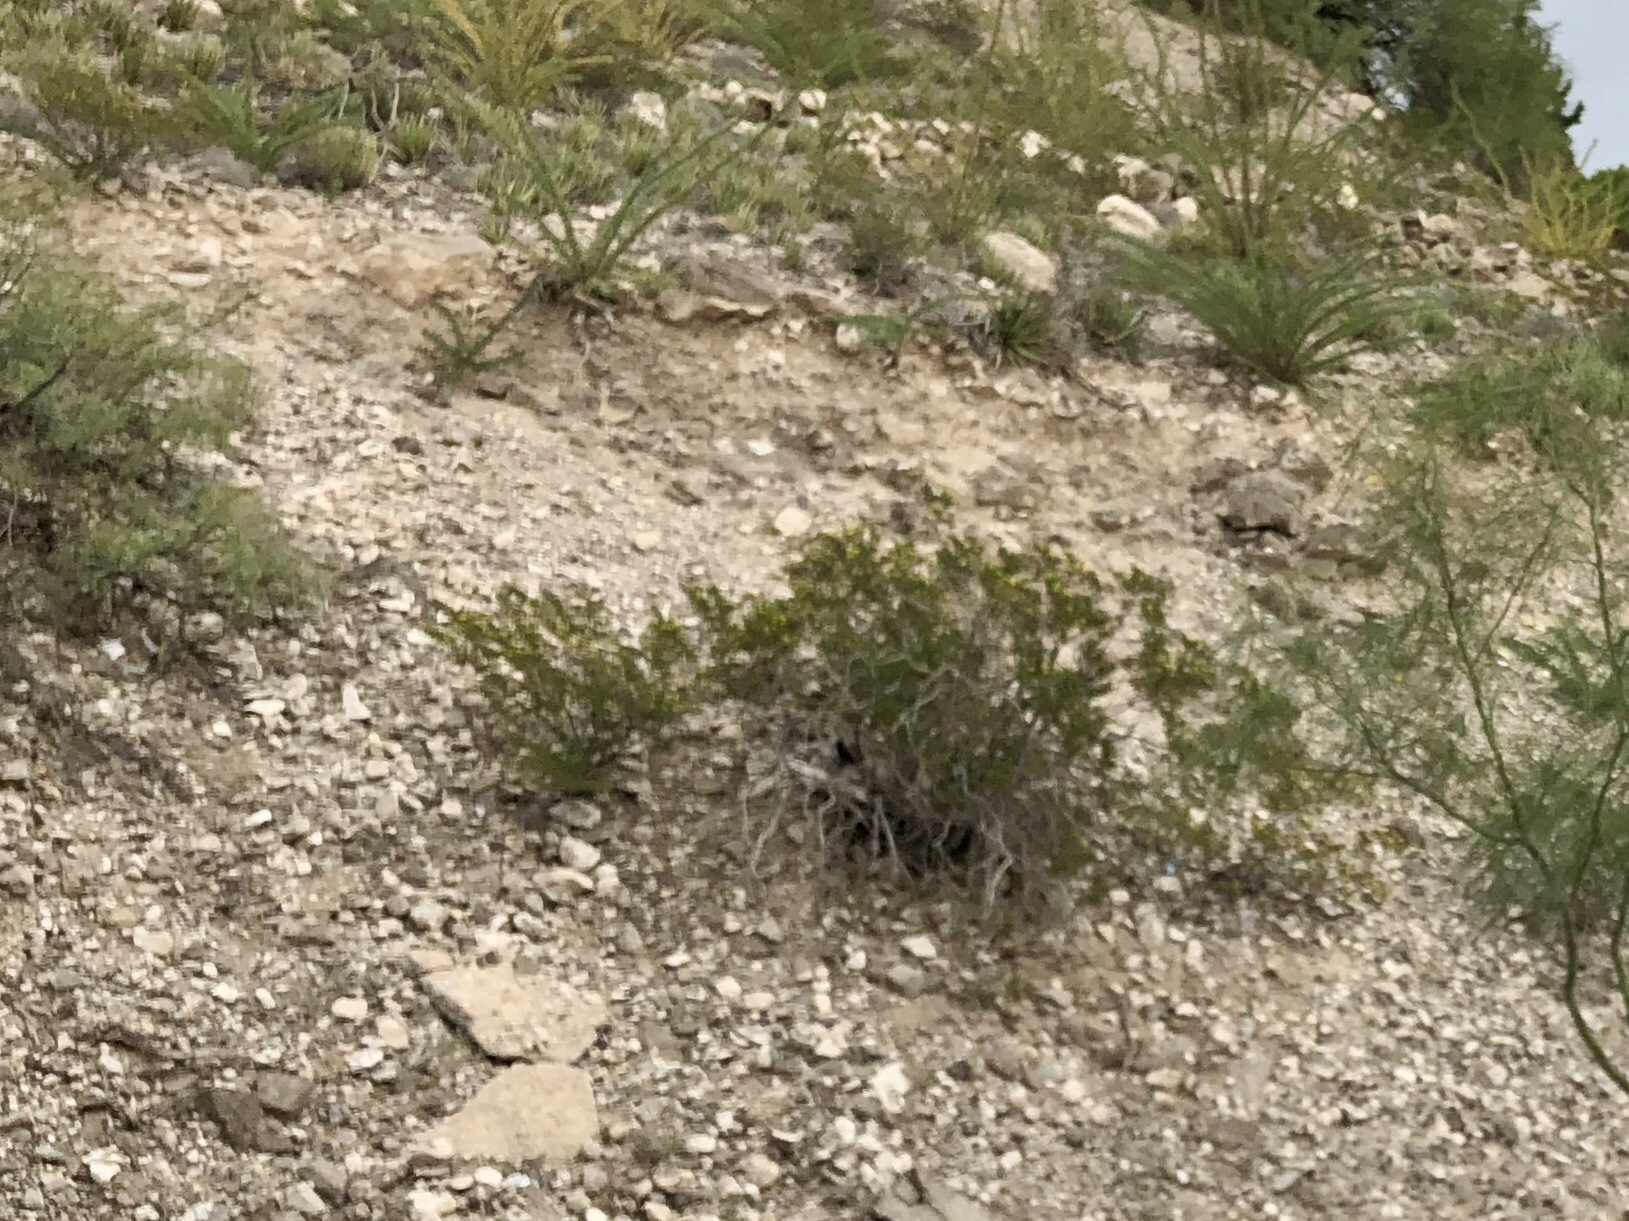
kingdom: Plantae
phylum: Tracheophyta
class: Magnoliopsida
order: Zygophyllales
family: Zygophyllaceae
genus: Larrea
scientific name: Larrea tridentata
